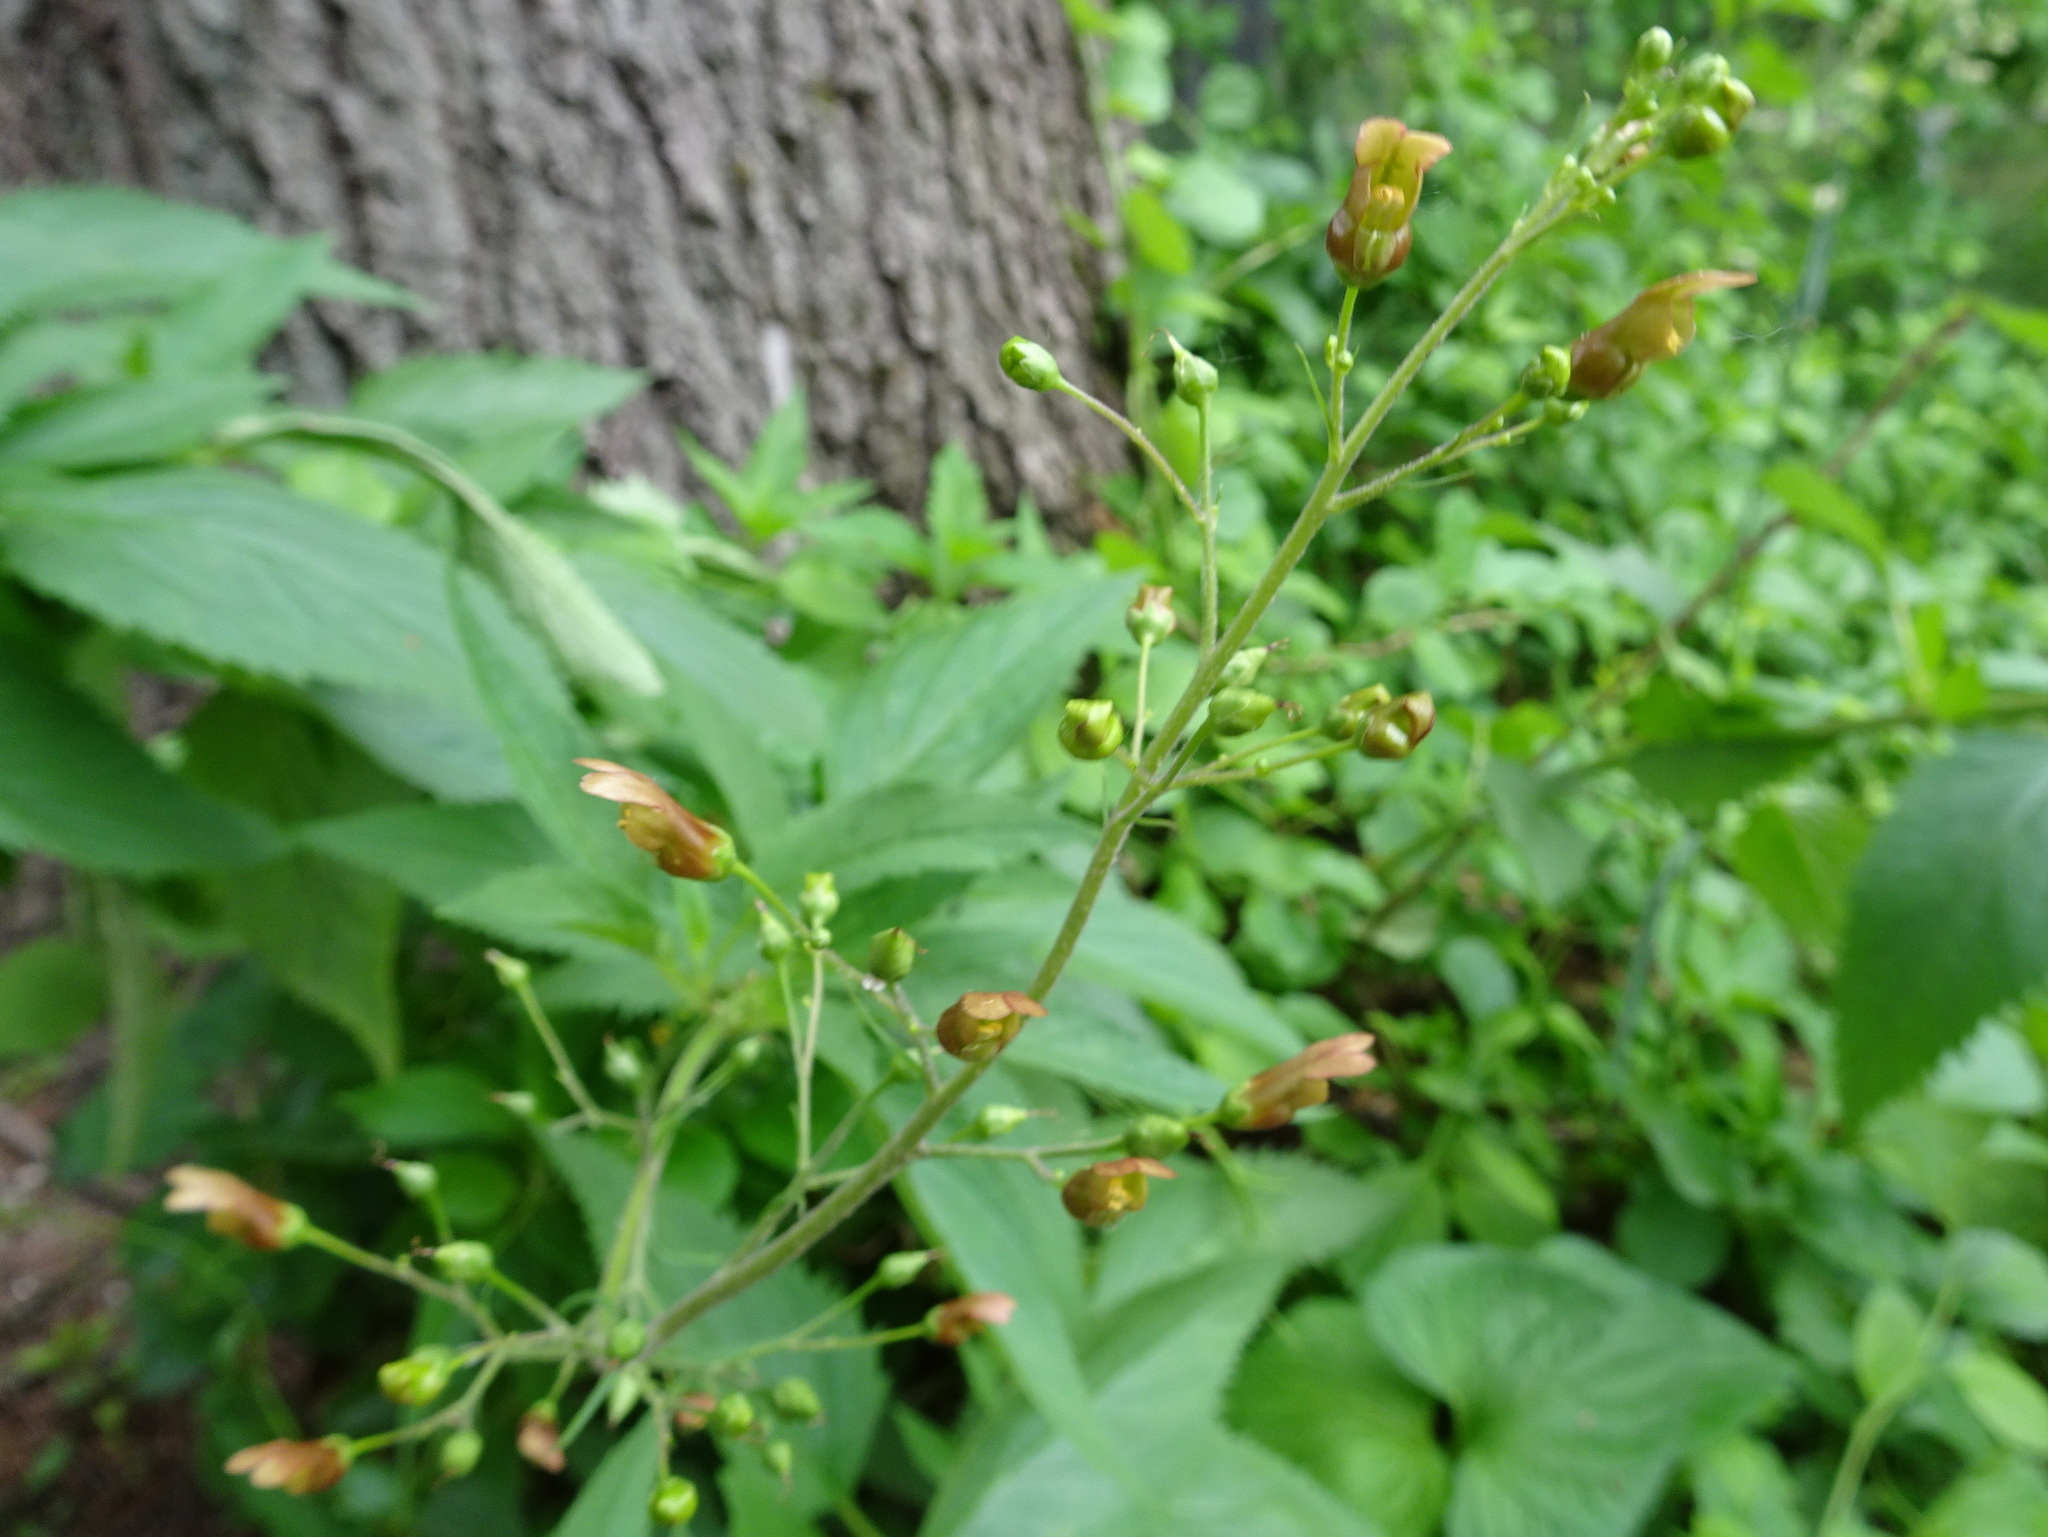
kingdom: Plantae
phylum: Tracheophyta
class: Magnoliopsida
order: Lamiales
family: Scrophulariaceae
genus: Scrophularia
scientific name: Scrophularia lanceolata
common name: American figwort
